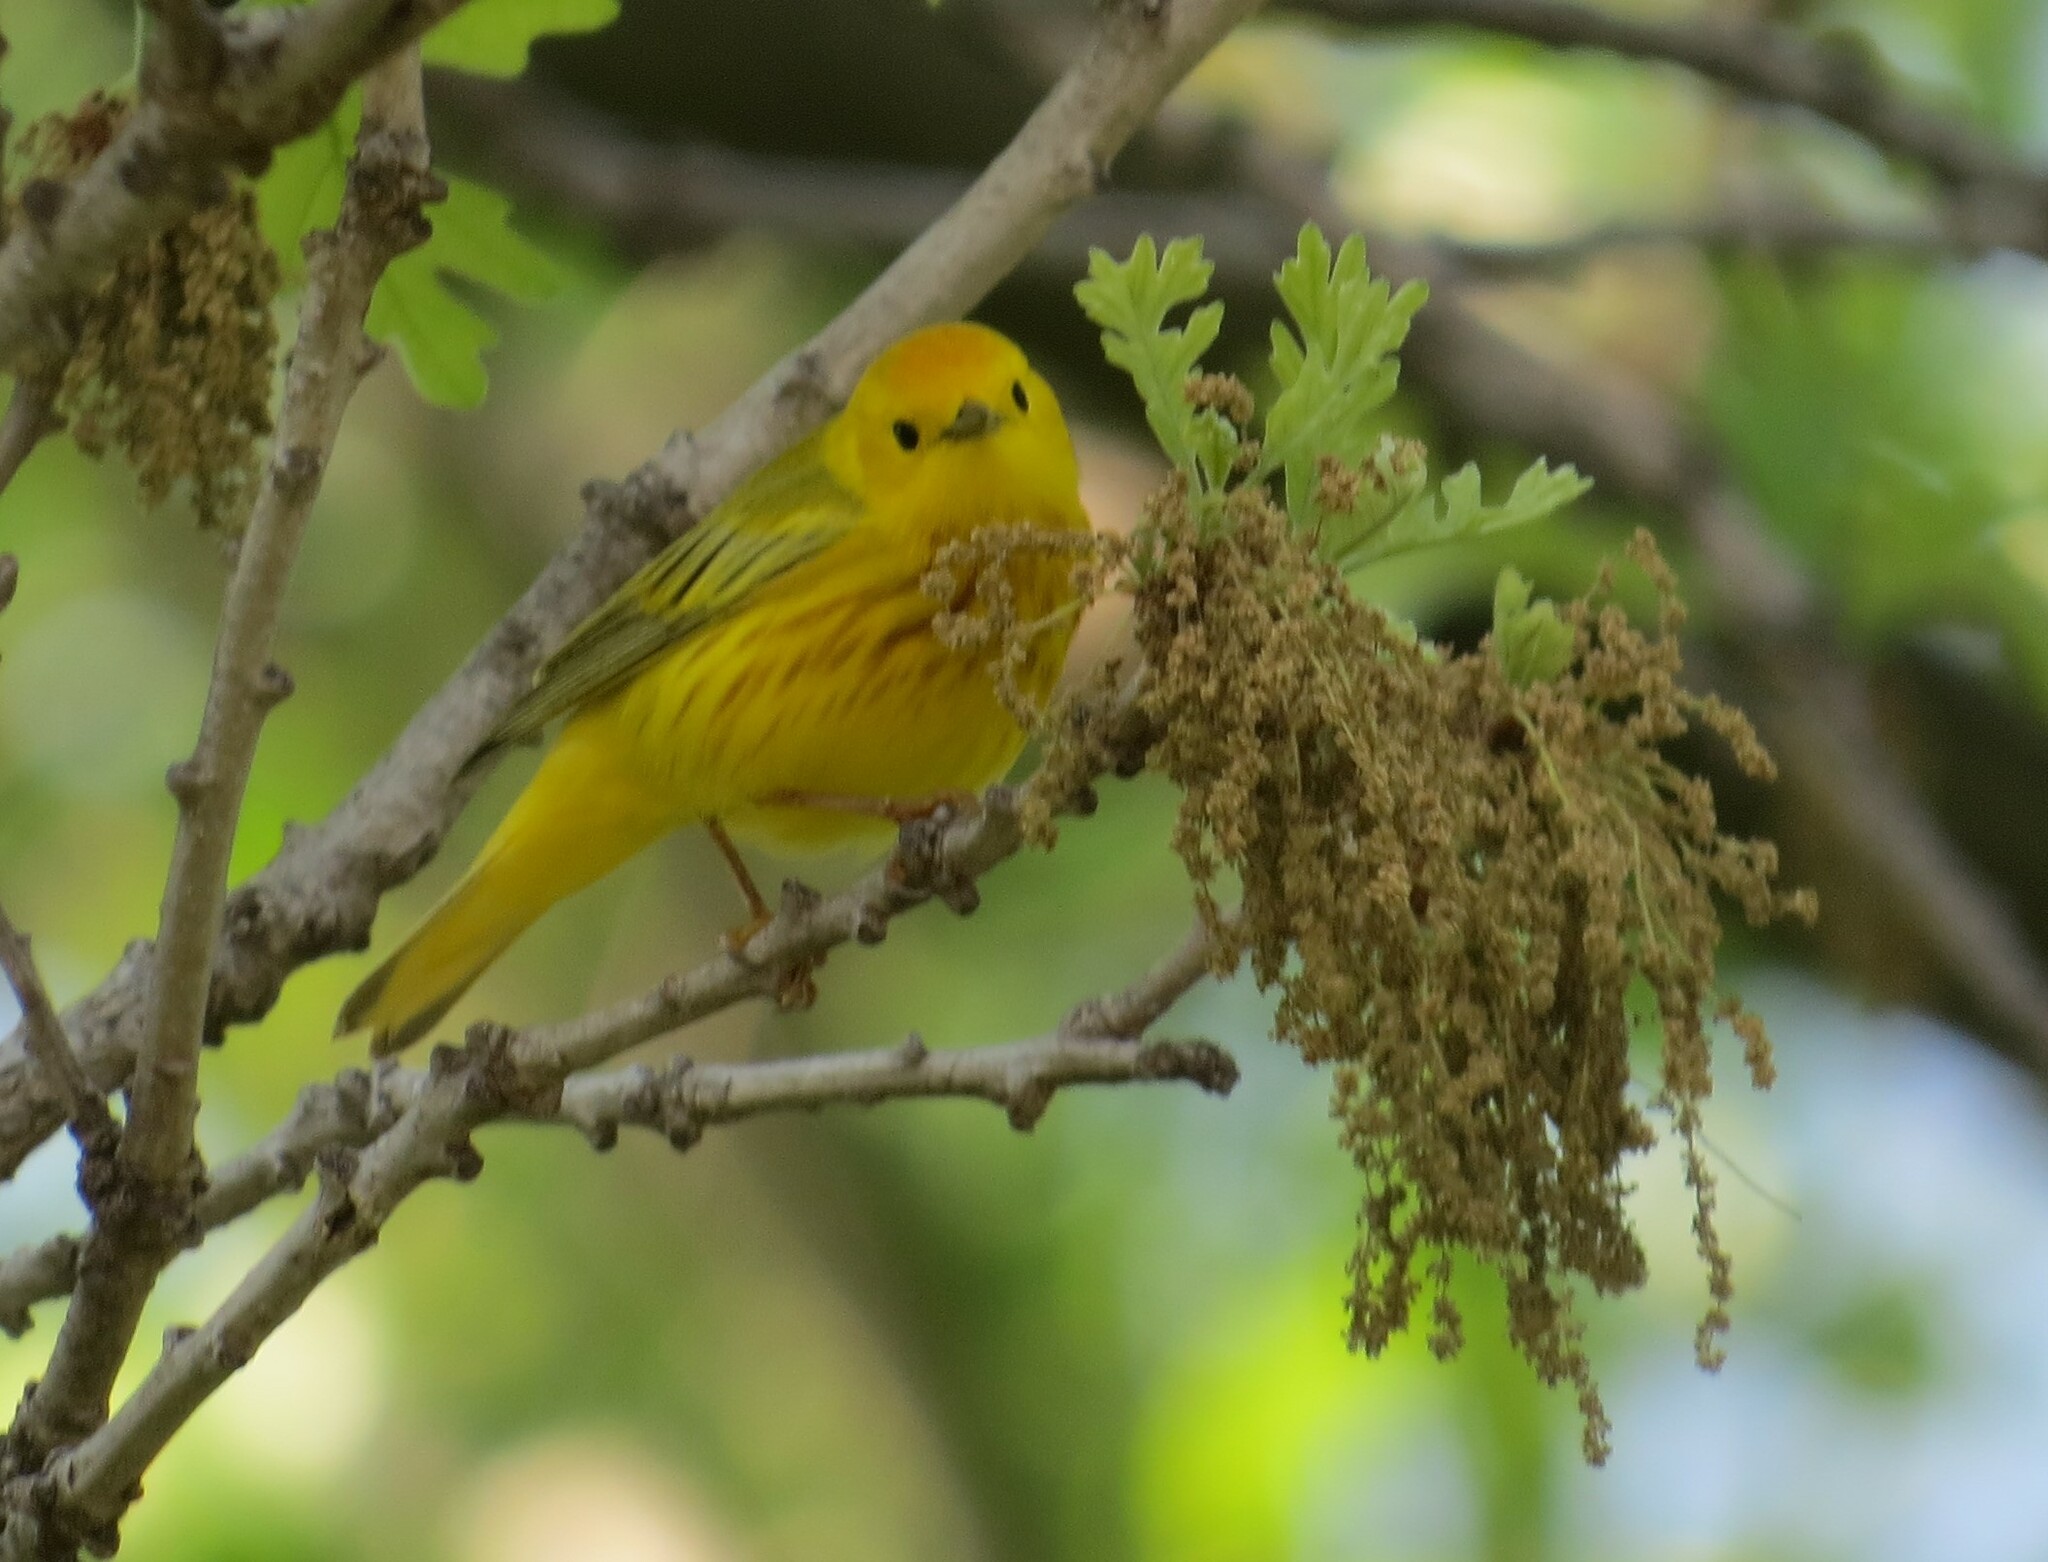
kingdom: Animalia
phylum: Chordata
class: Aves
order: Passeriformes
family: Parulidae
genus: Setophaga
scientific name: Setophaga petechia
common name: Yellow warbler
